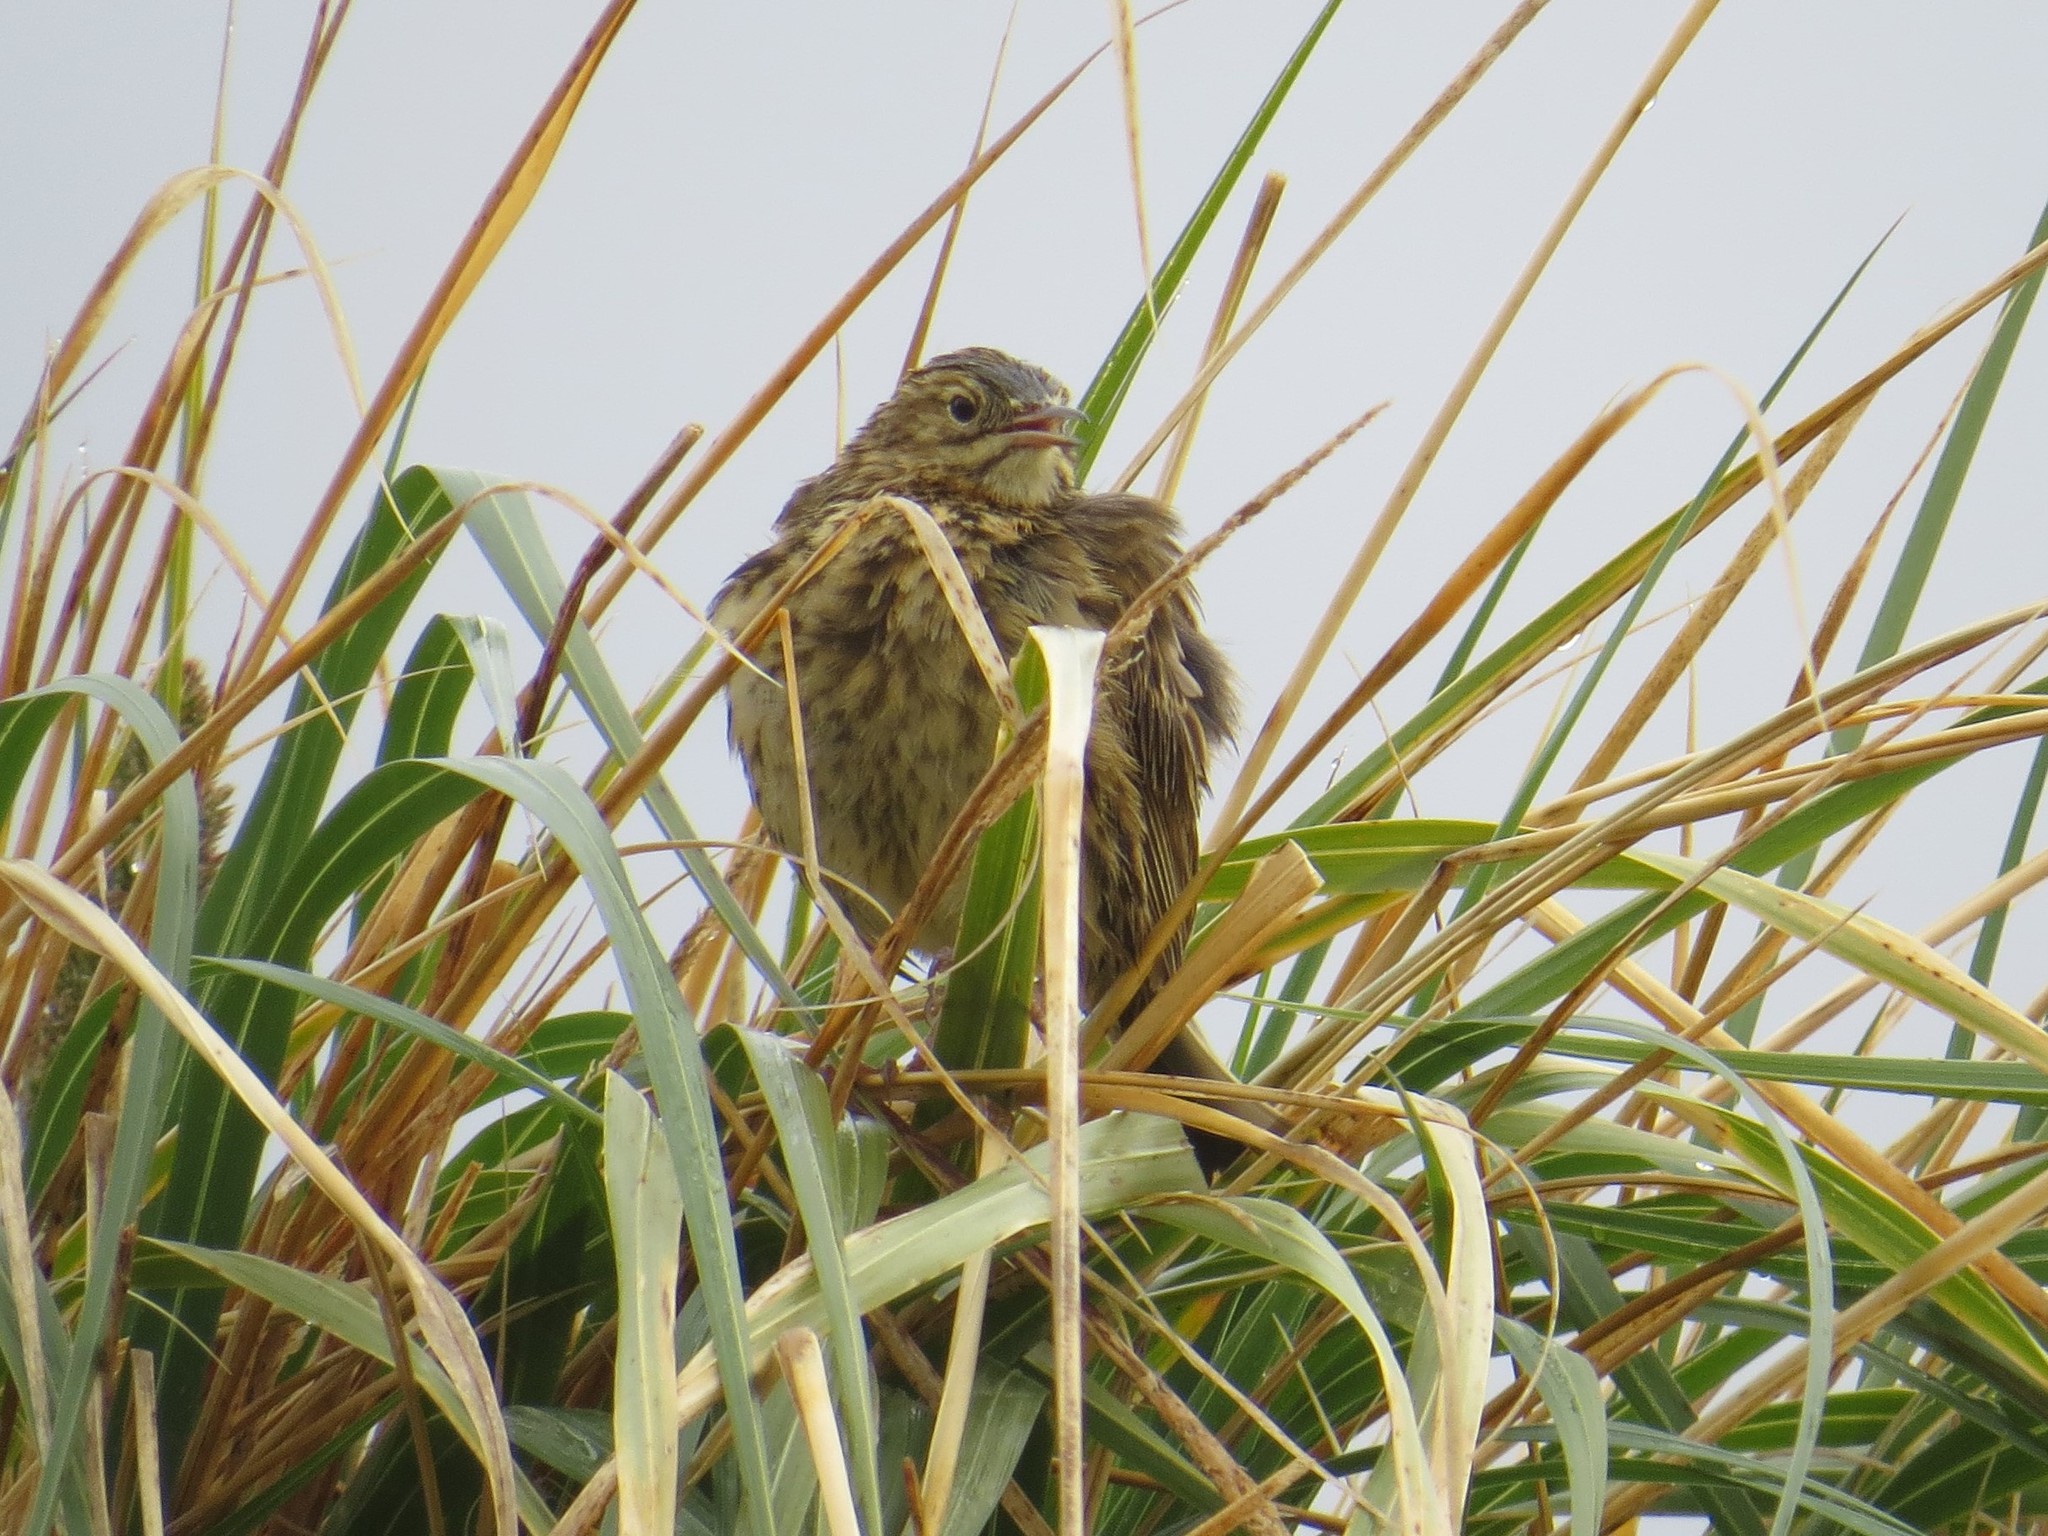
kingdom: Animalia
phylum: Chordata
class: Aves
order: Passeriformes
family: Motacillidae
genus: Anthus
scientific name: Anthus antarcticus
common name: South georgia pipit
